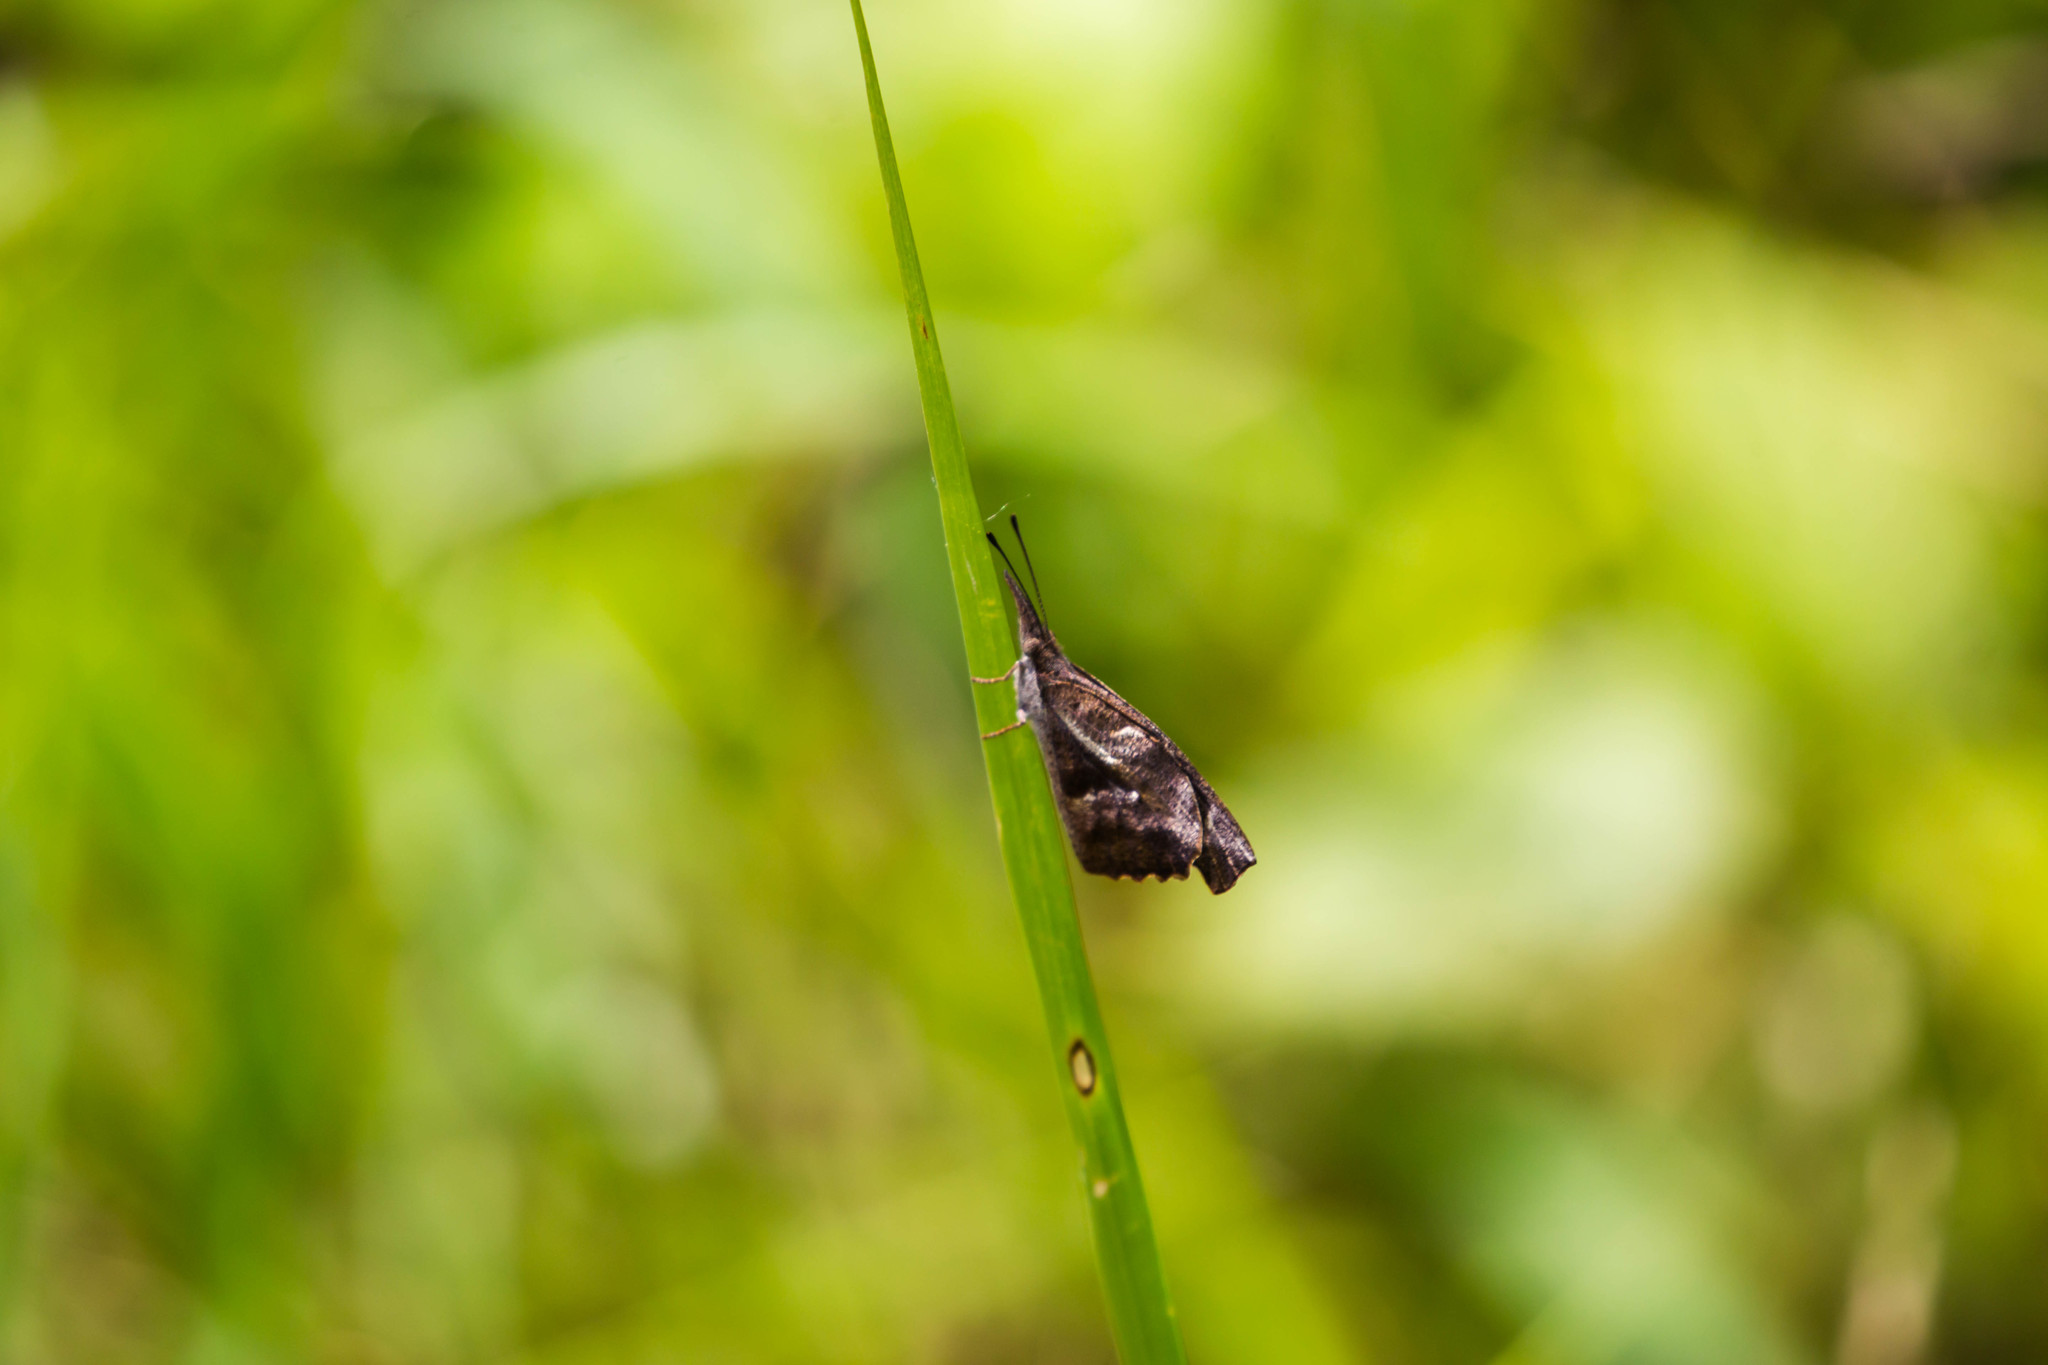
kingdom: Animalia
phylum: Arthropoda
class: Insecta
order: Lepidoptera
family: Nymphalidae
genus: Libytheana
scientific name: Libytheana carinenta
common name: American snout
